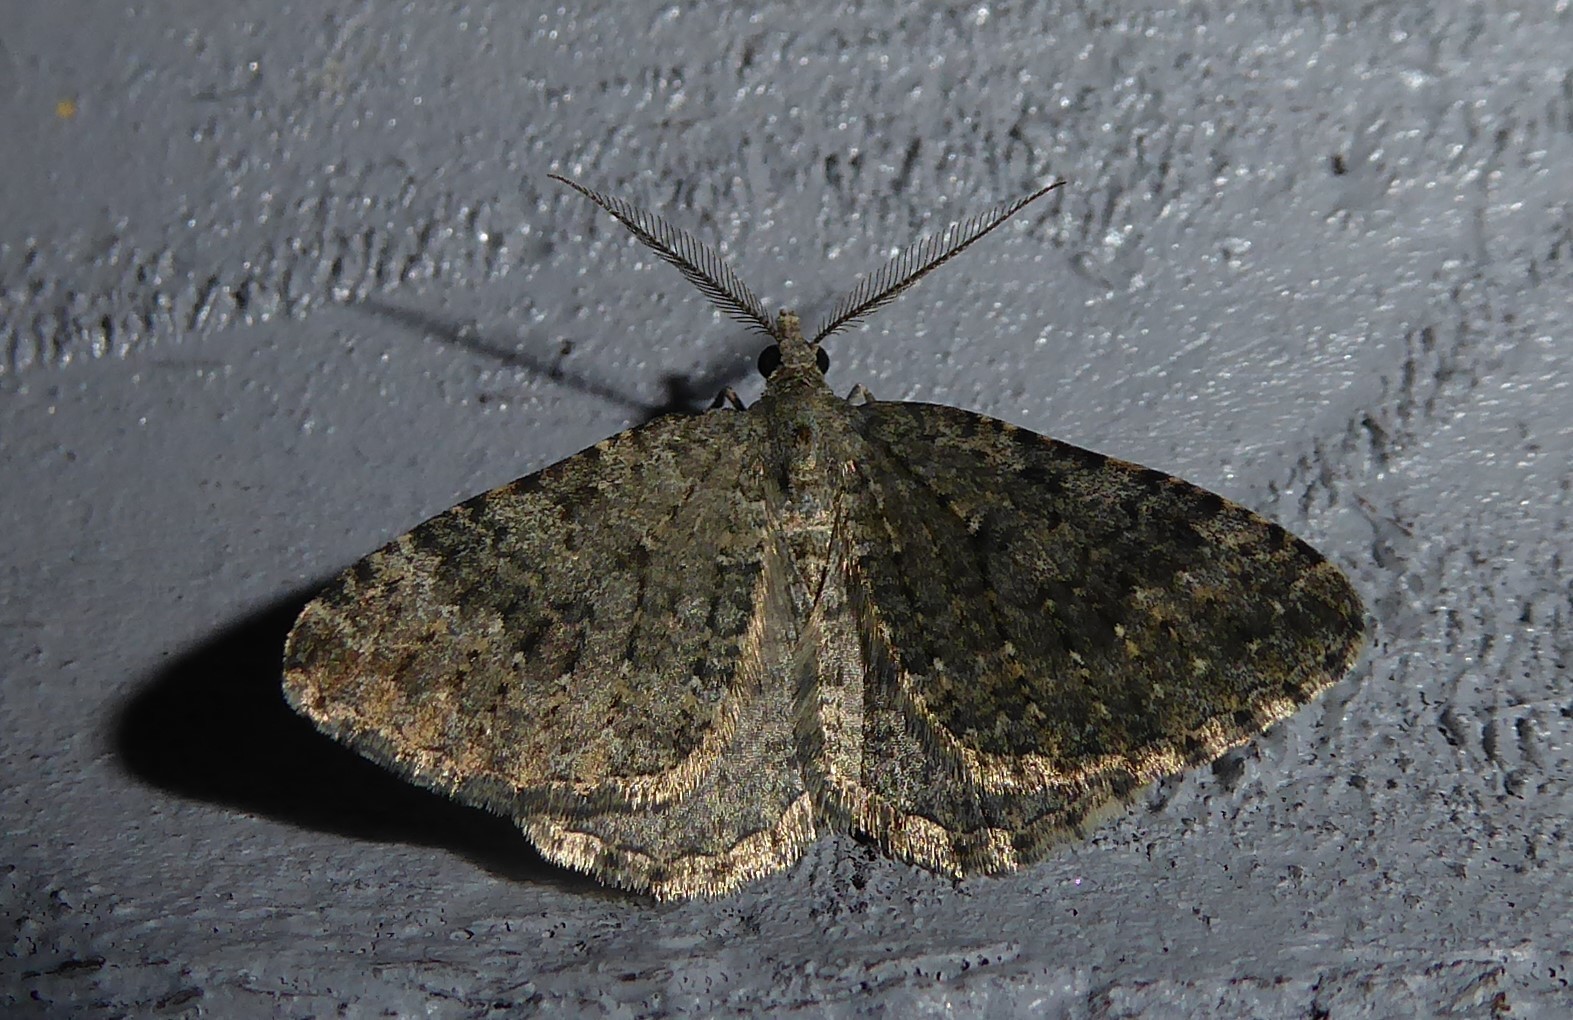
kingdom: Animalia
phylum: Arthropoda
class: Insecta
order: Lepidoptera
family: Geometridae
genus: Helastia
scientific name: Helastia corcularia
